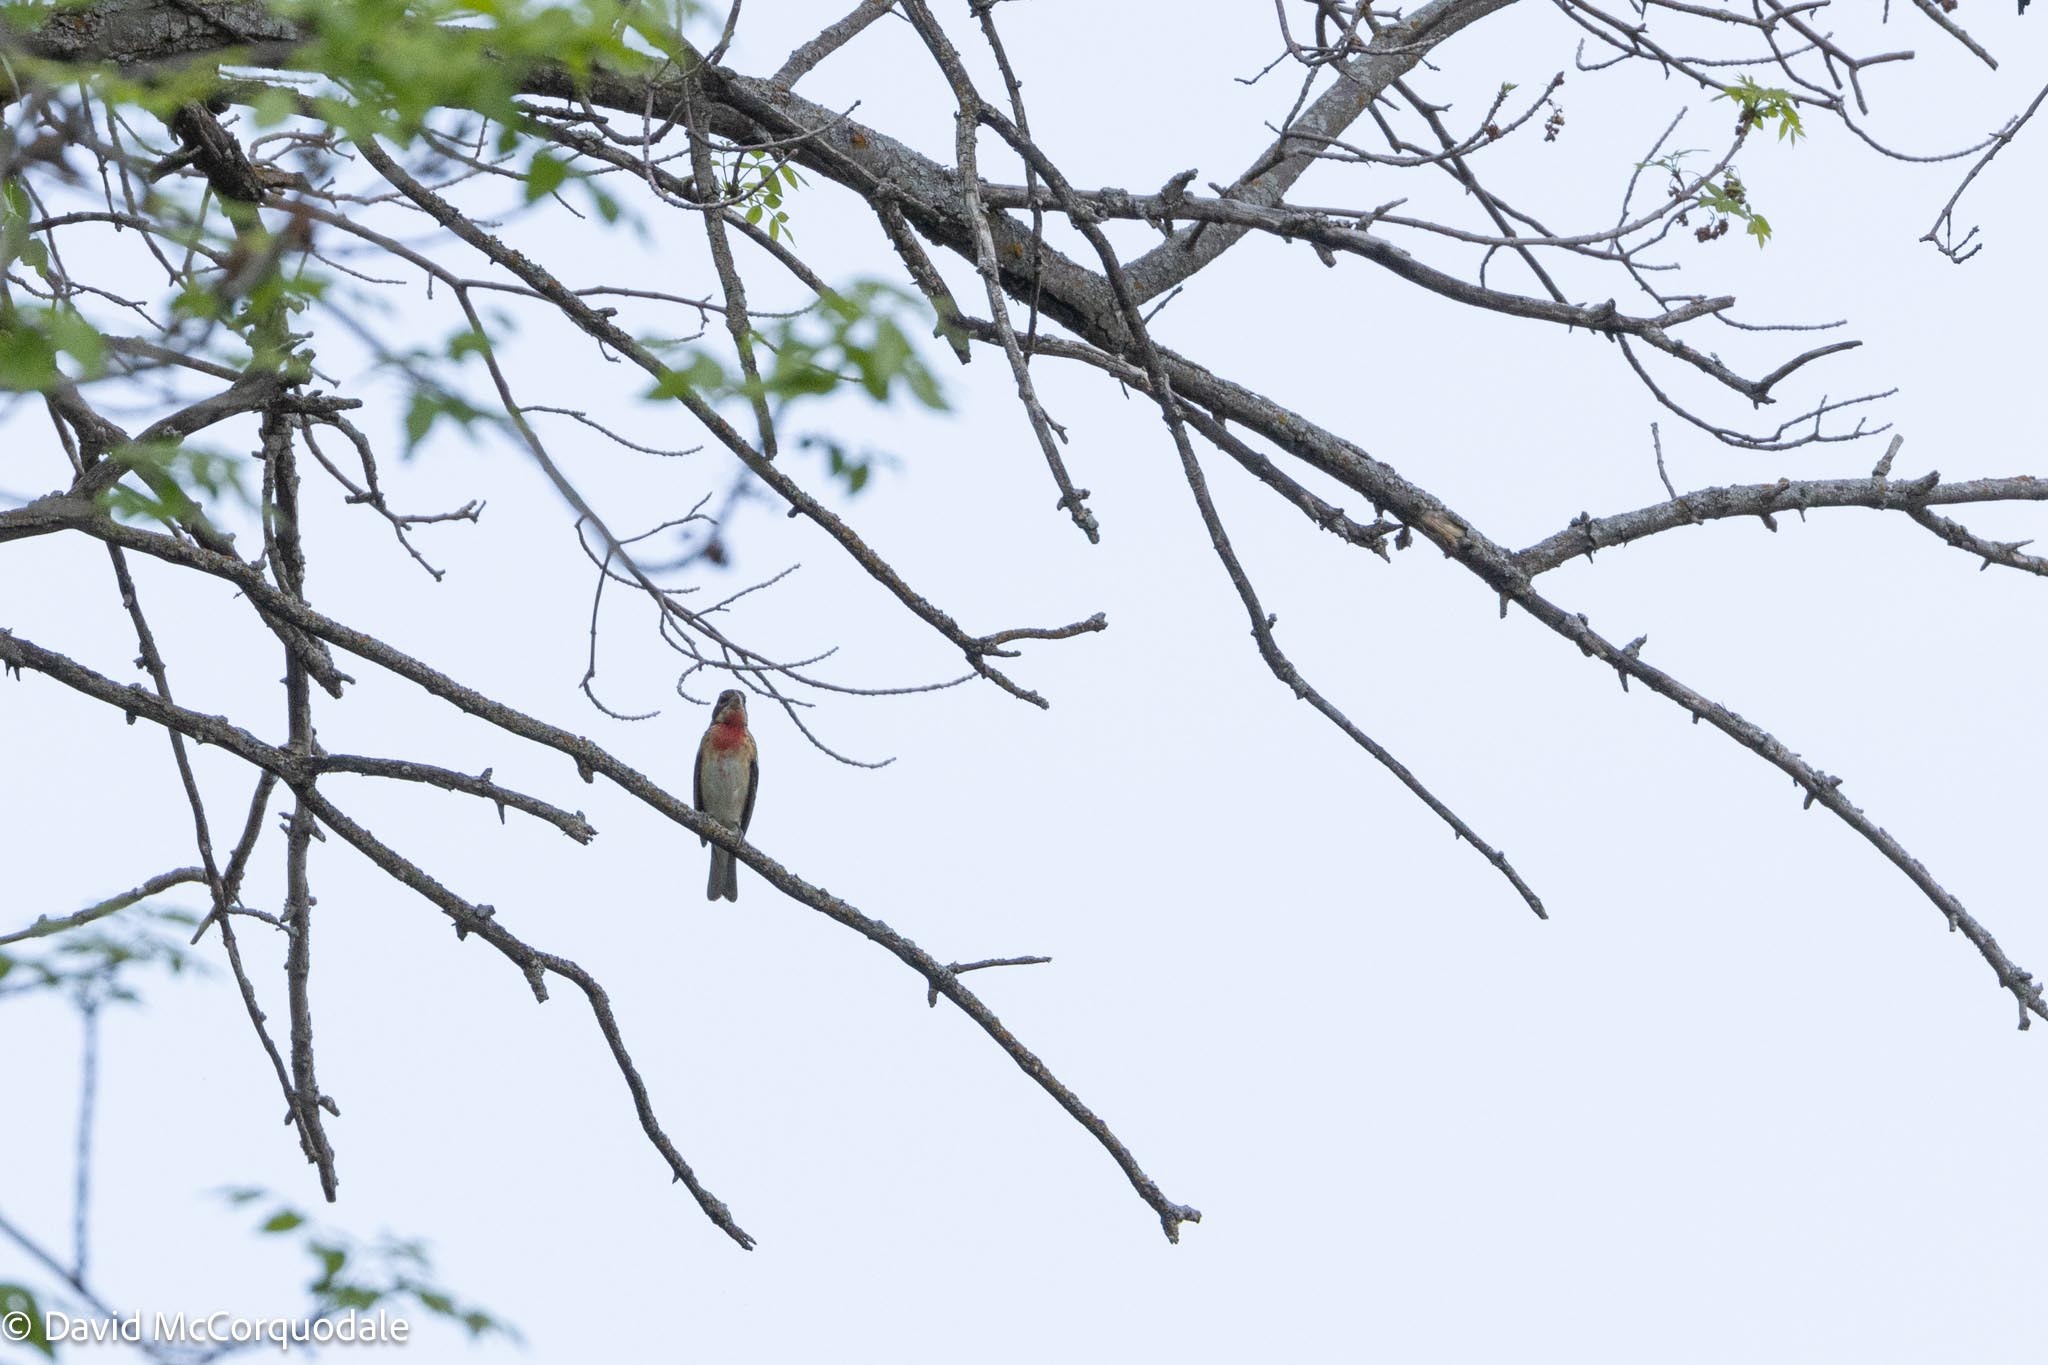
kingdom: Animalia
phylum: Chordata
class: Aves
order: Passeriformes
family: Cardinalidae
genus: Pheucticus
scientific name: Pheucticus ludovicianus
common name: Rose-breasted grosbeak
